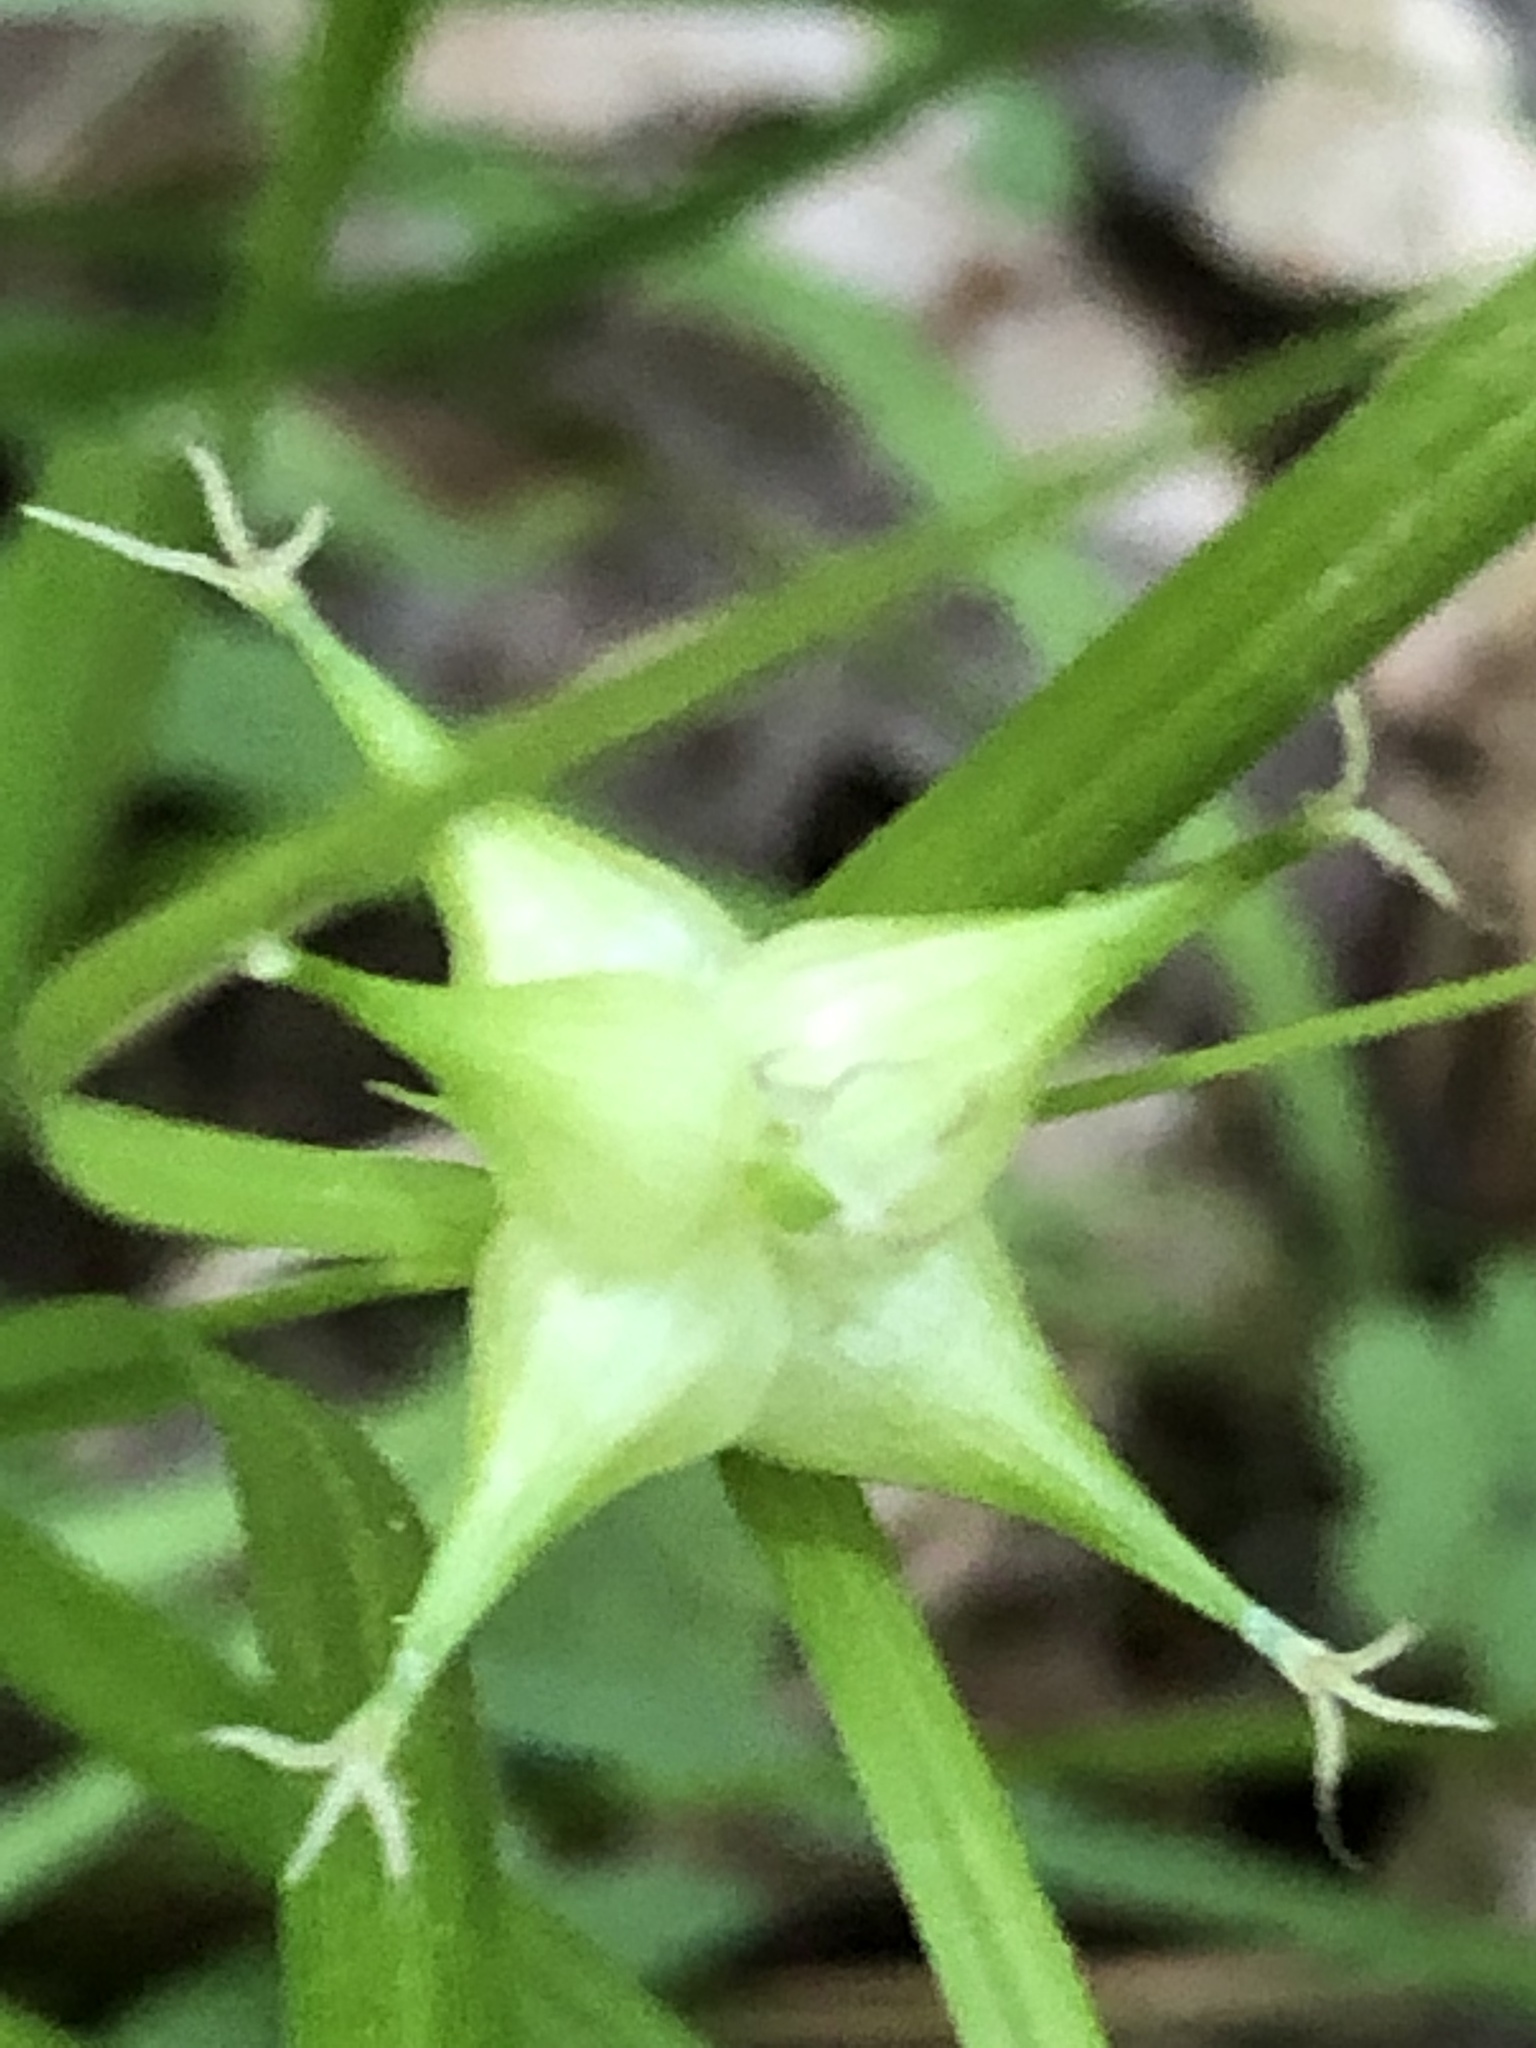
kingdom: Plantae
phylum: Tracheophyta
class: Liliopsida
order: Poales
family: Cyperaceae
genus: Carex
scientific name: Carex intumescens
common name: Greater bladder sedge
